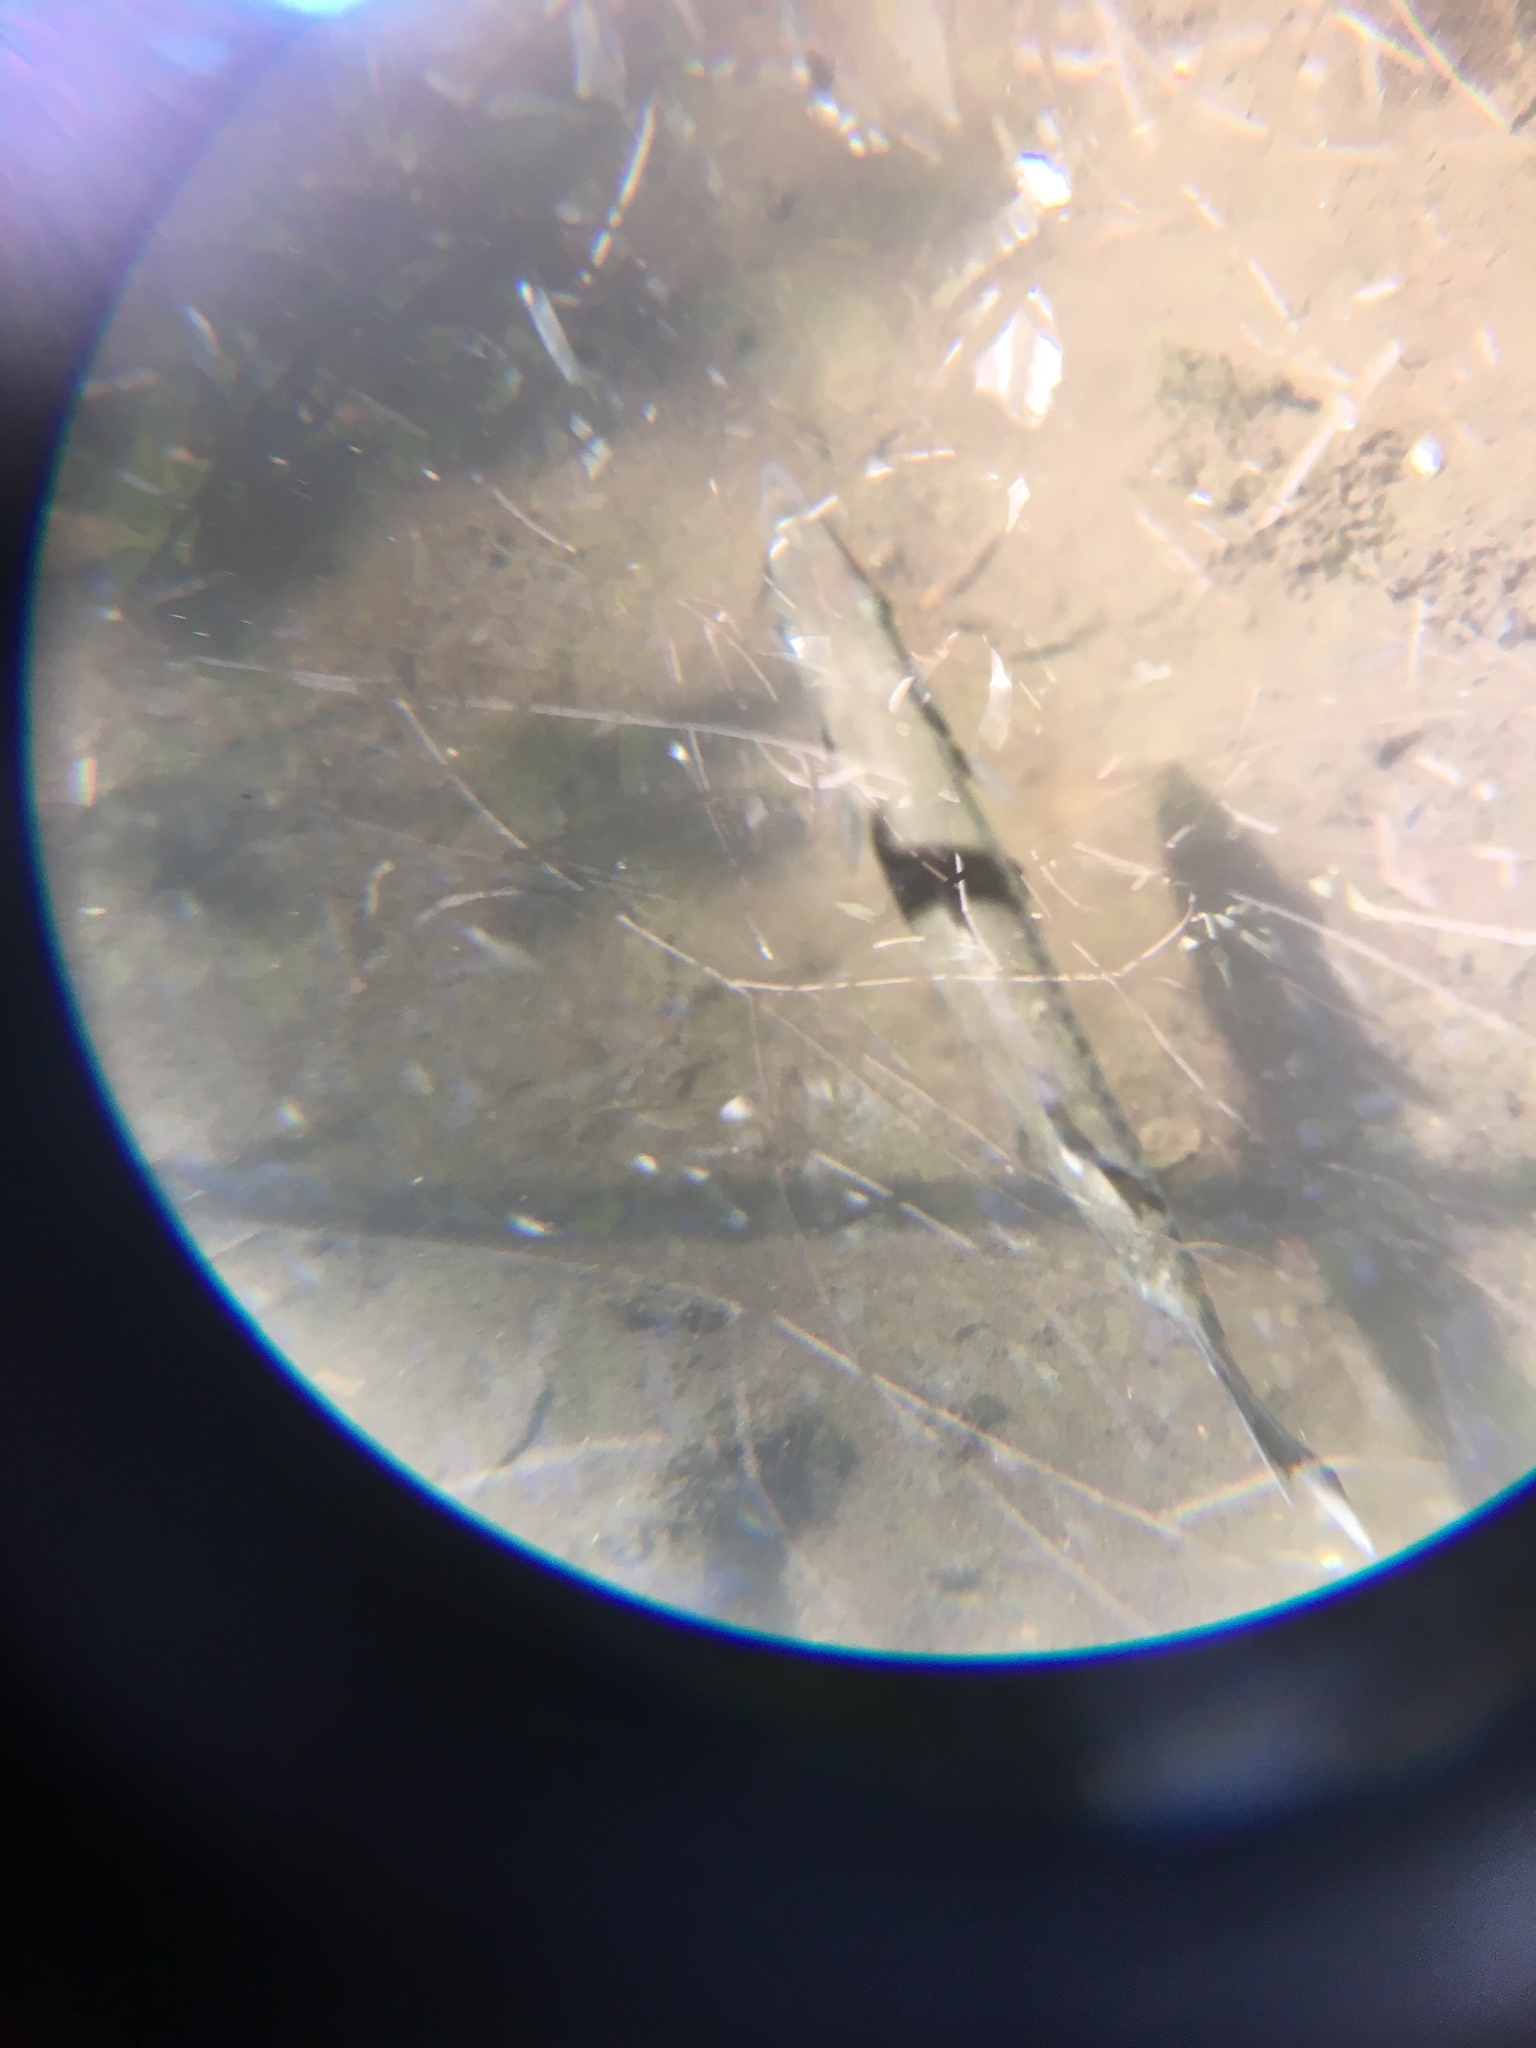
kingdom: Animalia
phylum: Chordata
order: Perciformes
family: Sphyraenidae
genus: Sphyraena
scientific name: Sphyraena barracuda
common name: Great barracuda
